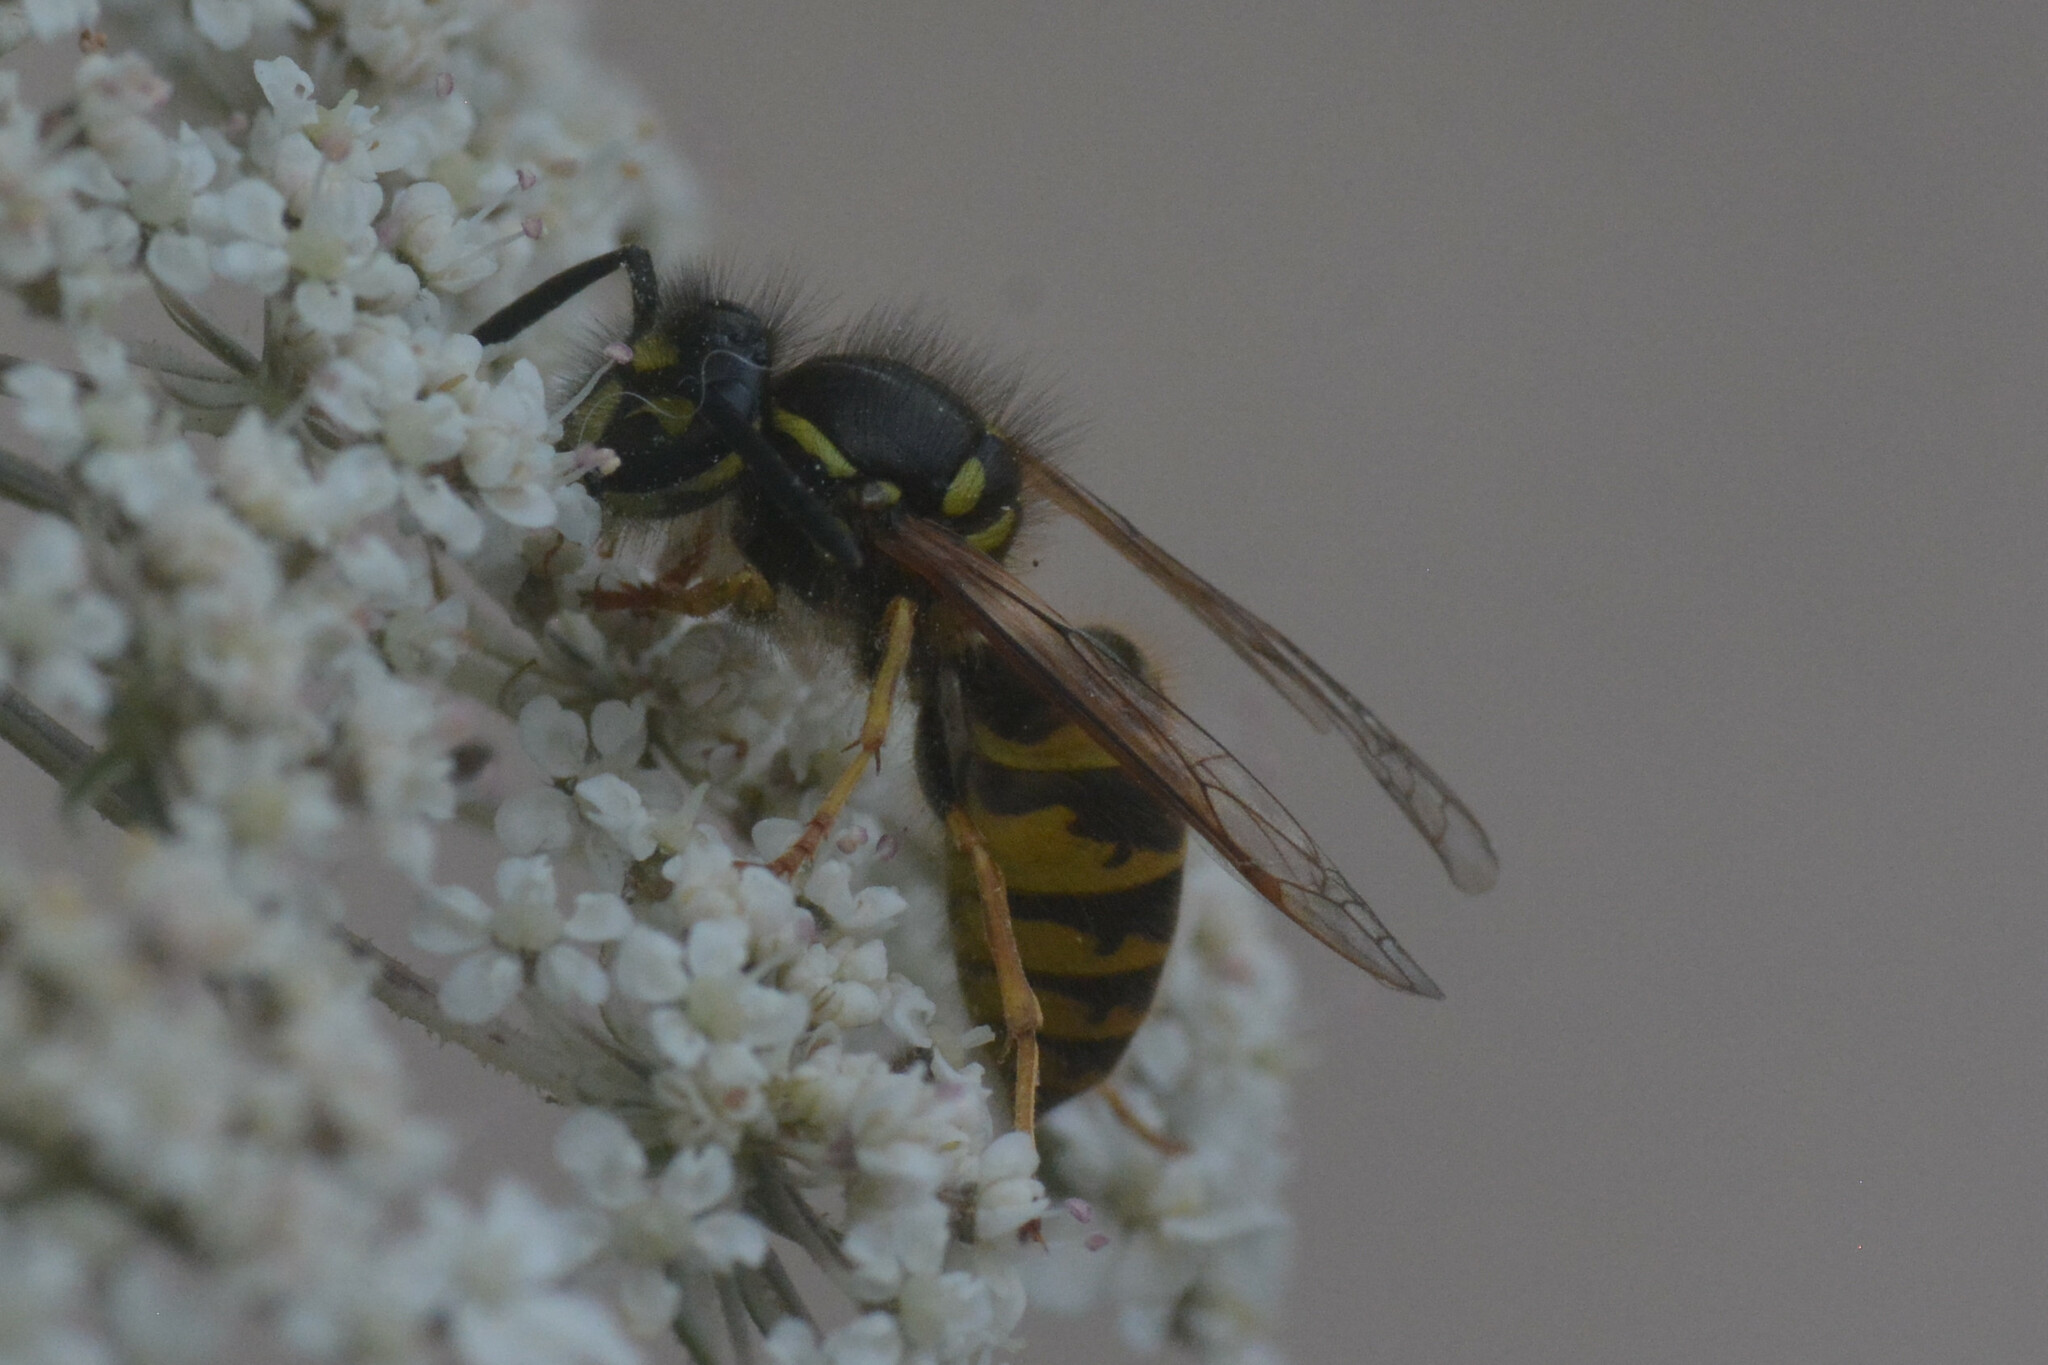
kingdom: Animalia
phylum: Arthropoda
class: Insecta
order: Hymenoptera
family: Vespidae
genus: Vespula
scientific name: Vespula vulgaris
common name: Common wasp
